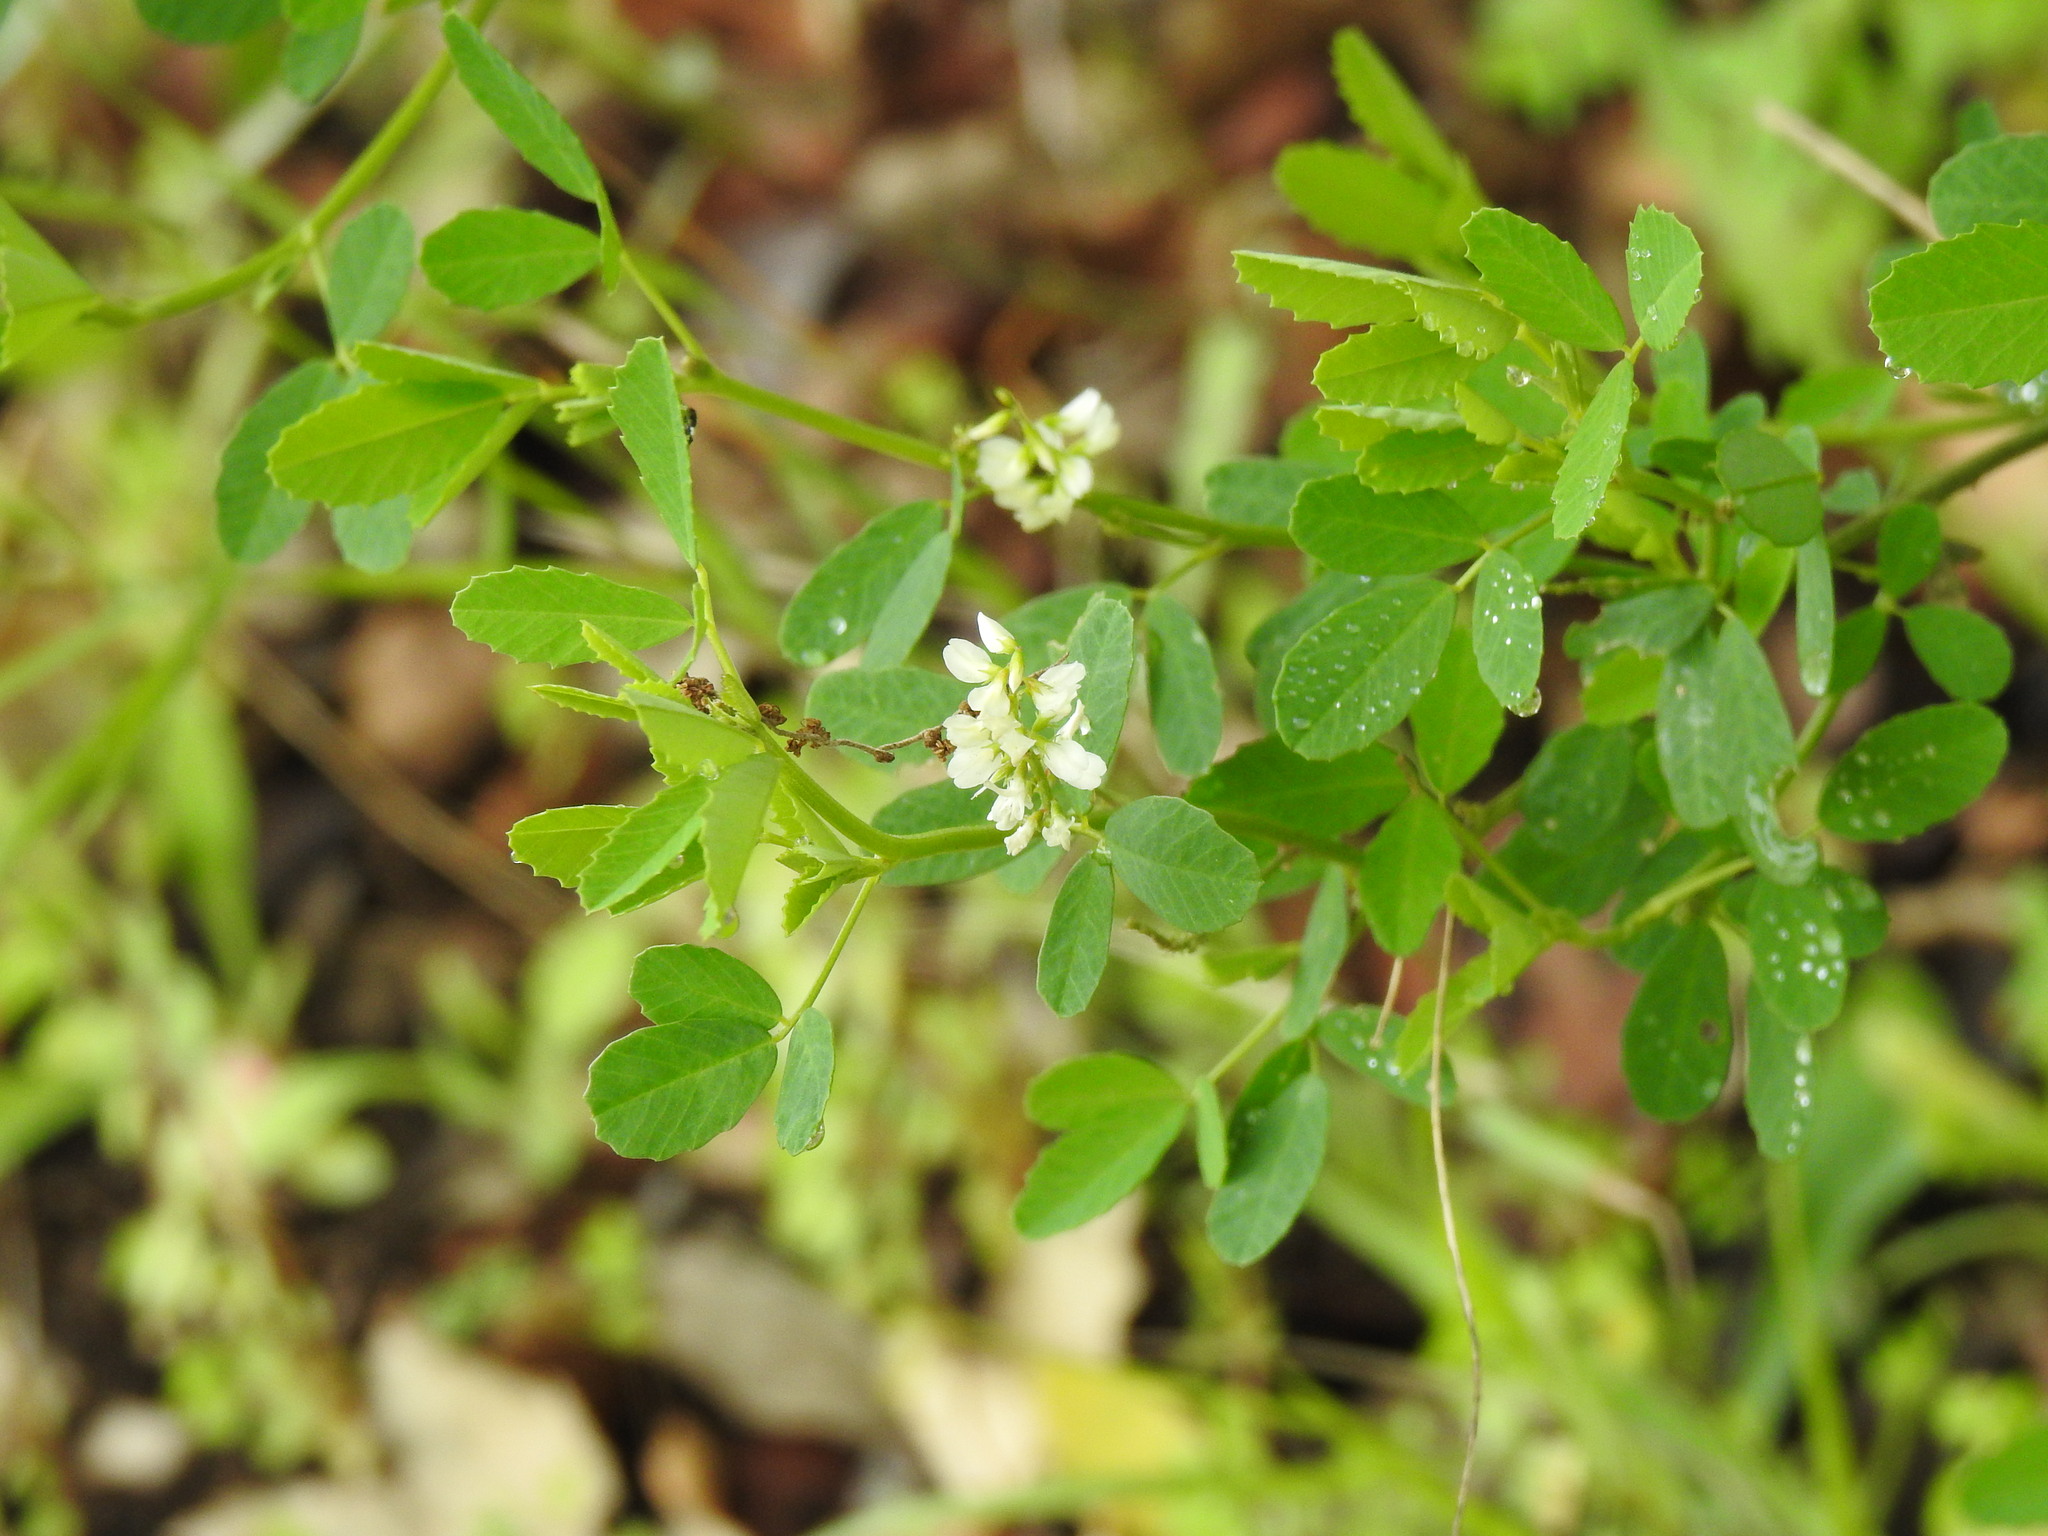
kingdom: Plantae
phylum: Tracheophyta
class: Magnoliopsida
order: Fabales
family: Fabaceae
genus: Melilotus
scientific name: Melilotus albus
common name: White melilot
